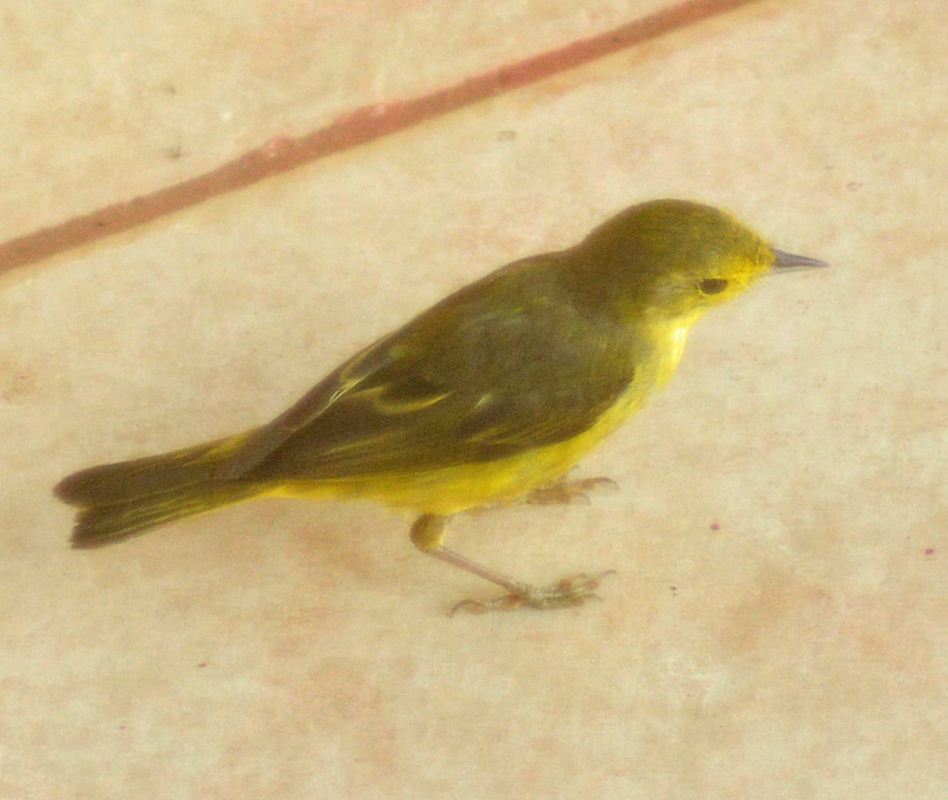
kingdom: Animalia
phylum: Chordata
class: Aves
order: Passeriformes
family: Parulidae
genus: Setophaga
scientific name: Setophaga petechia
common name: Yellow warbler
